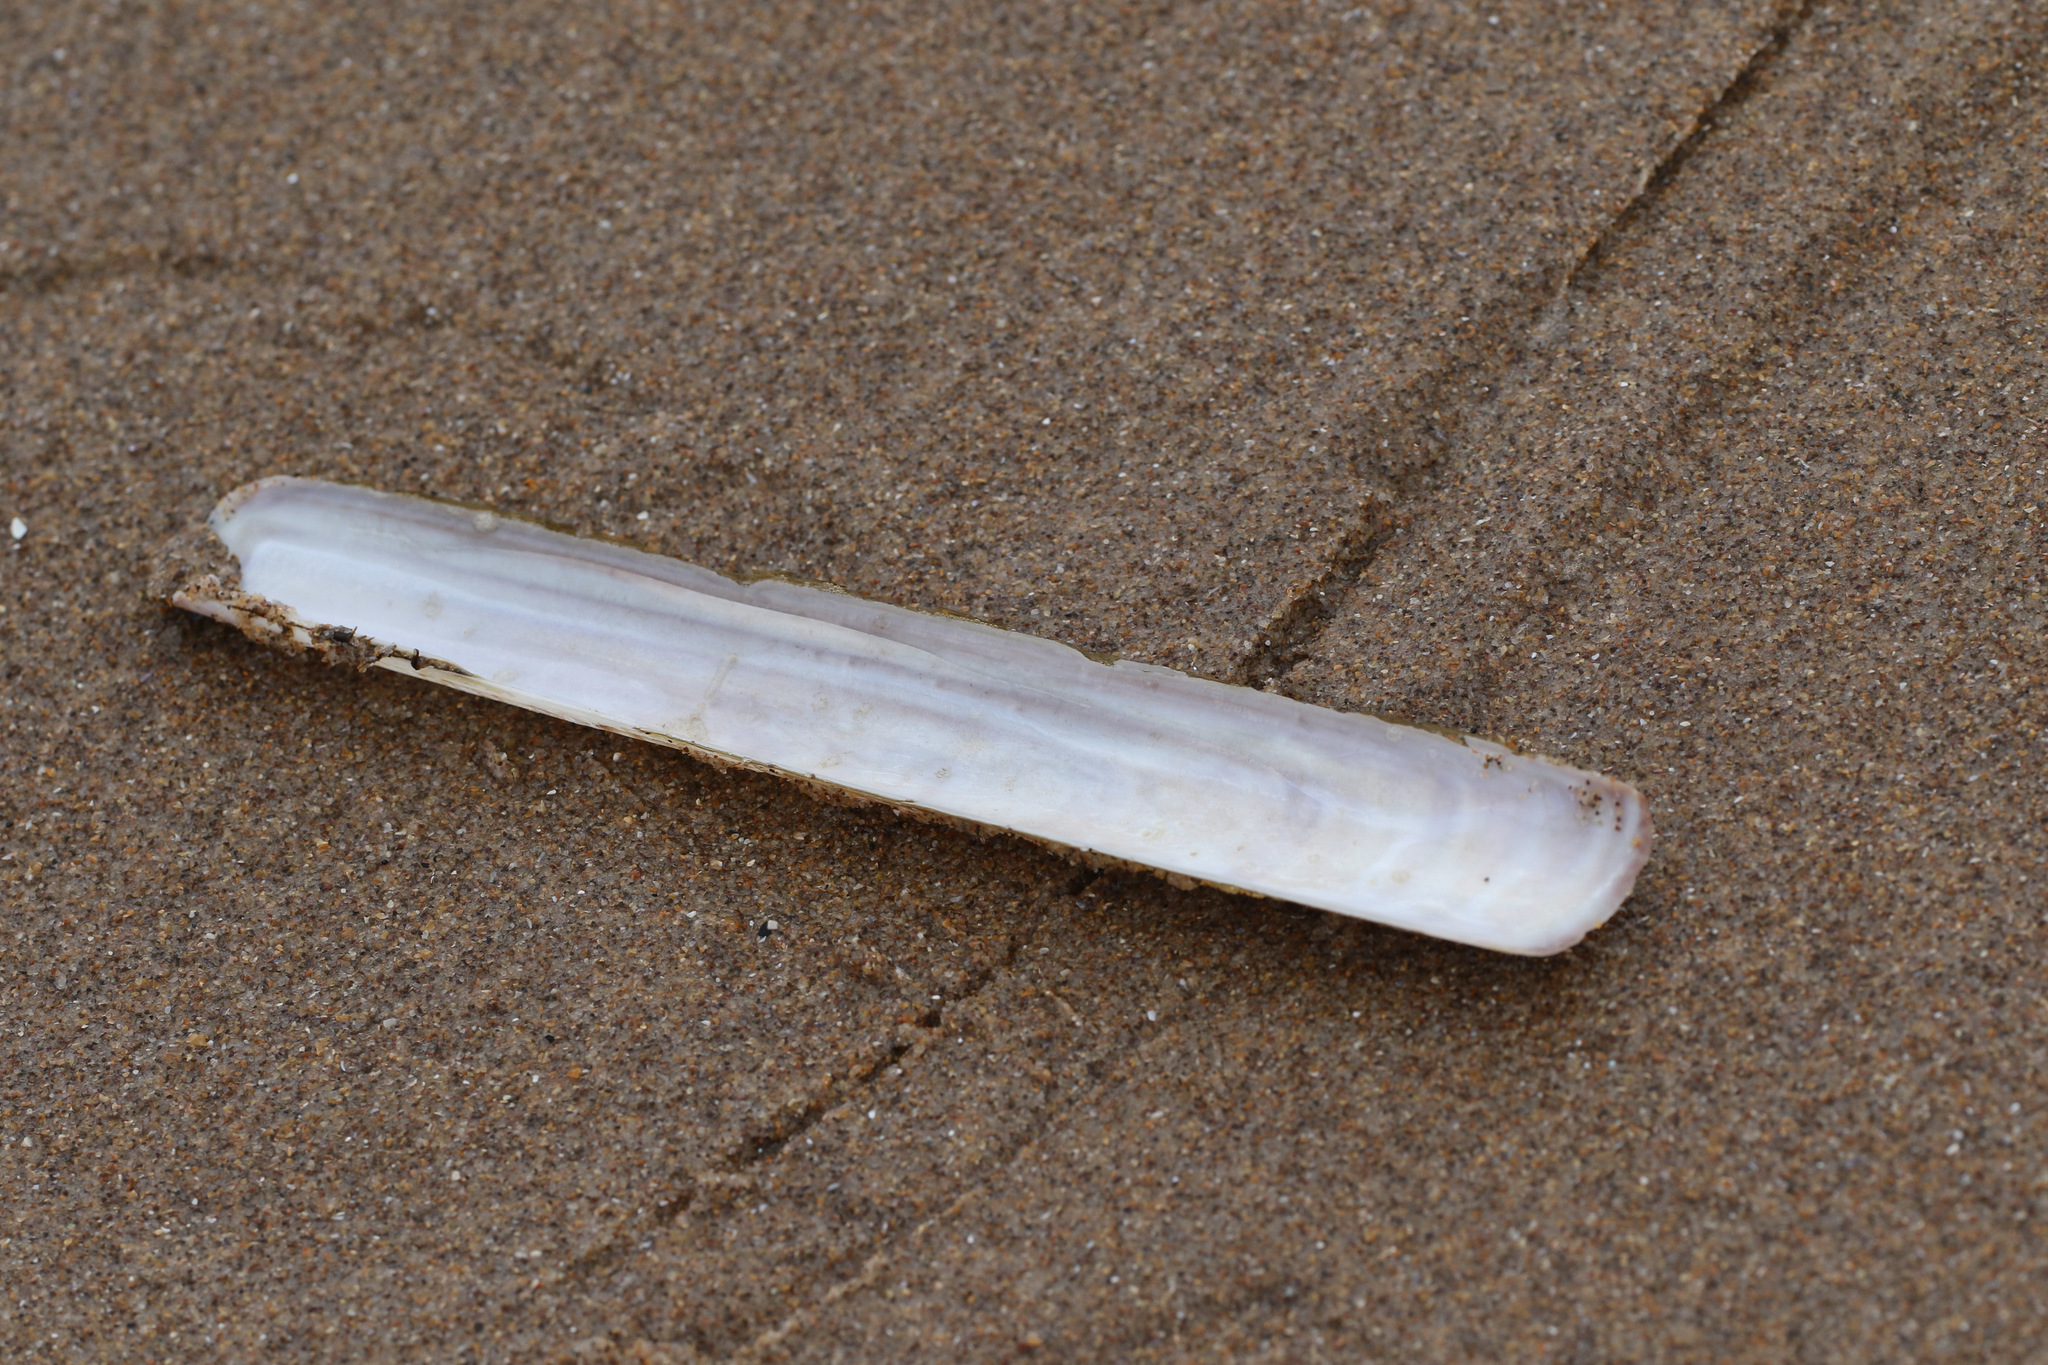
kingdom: Animalia
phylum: Mollusca
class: Bivalvia
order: Adapedonta
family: Pharidae
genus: Ensis
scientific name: Ensis siliqua
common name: Pod razor shell
